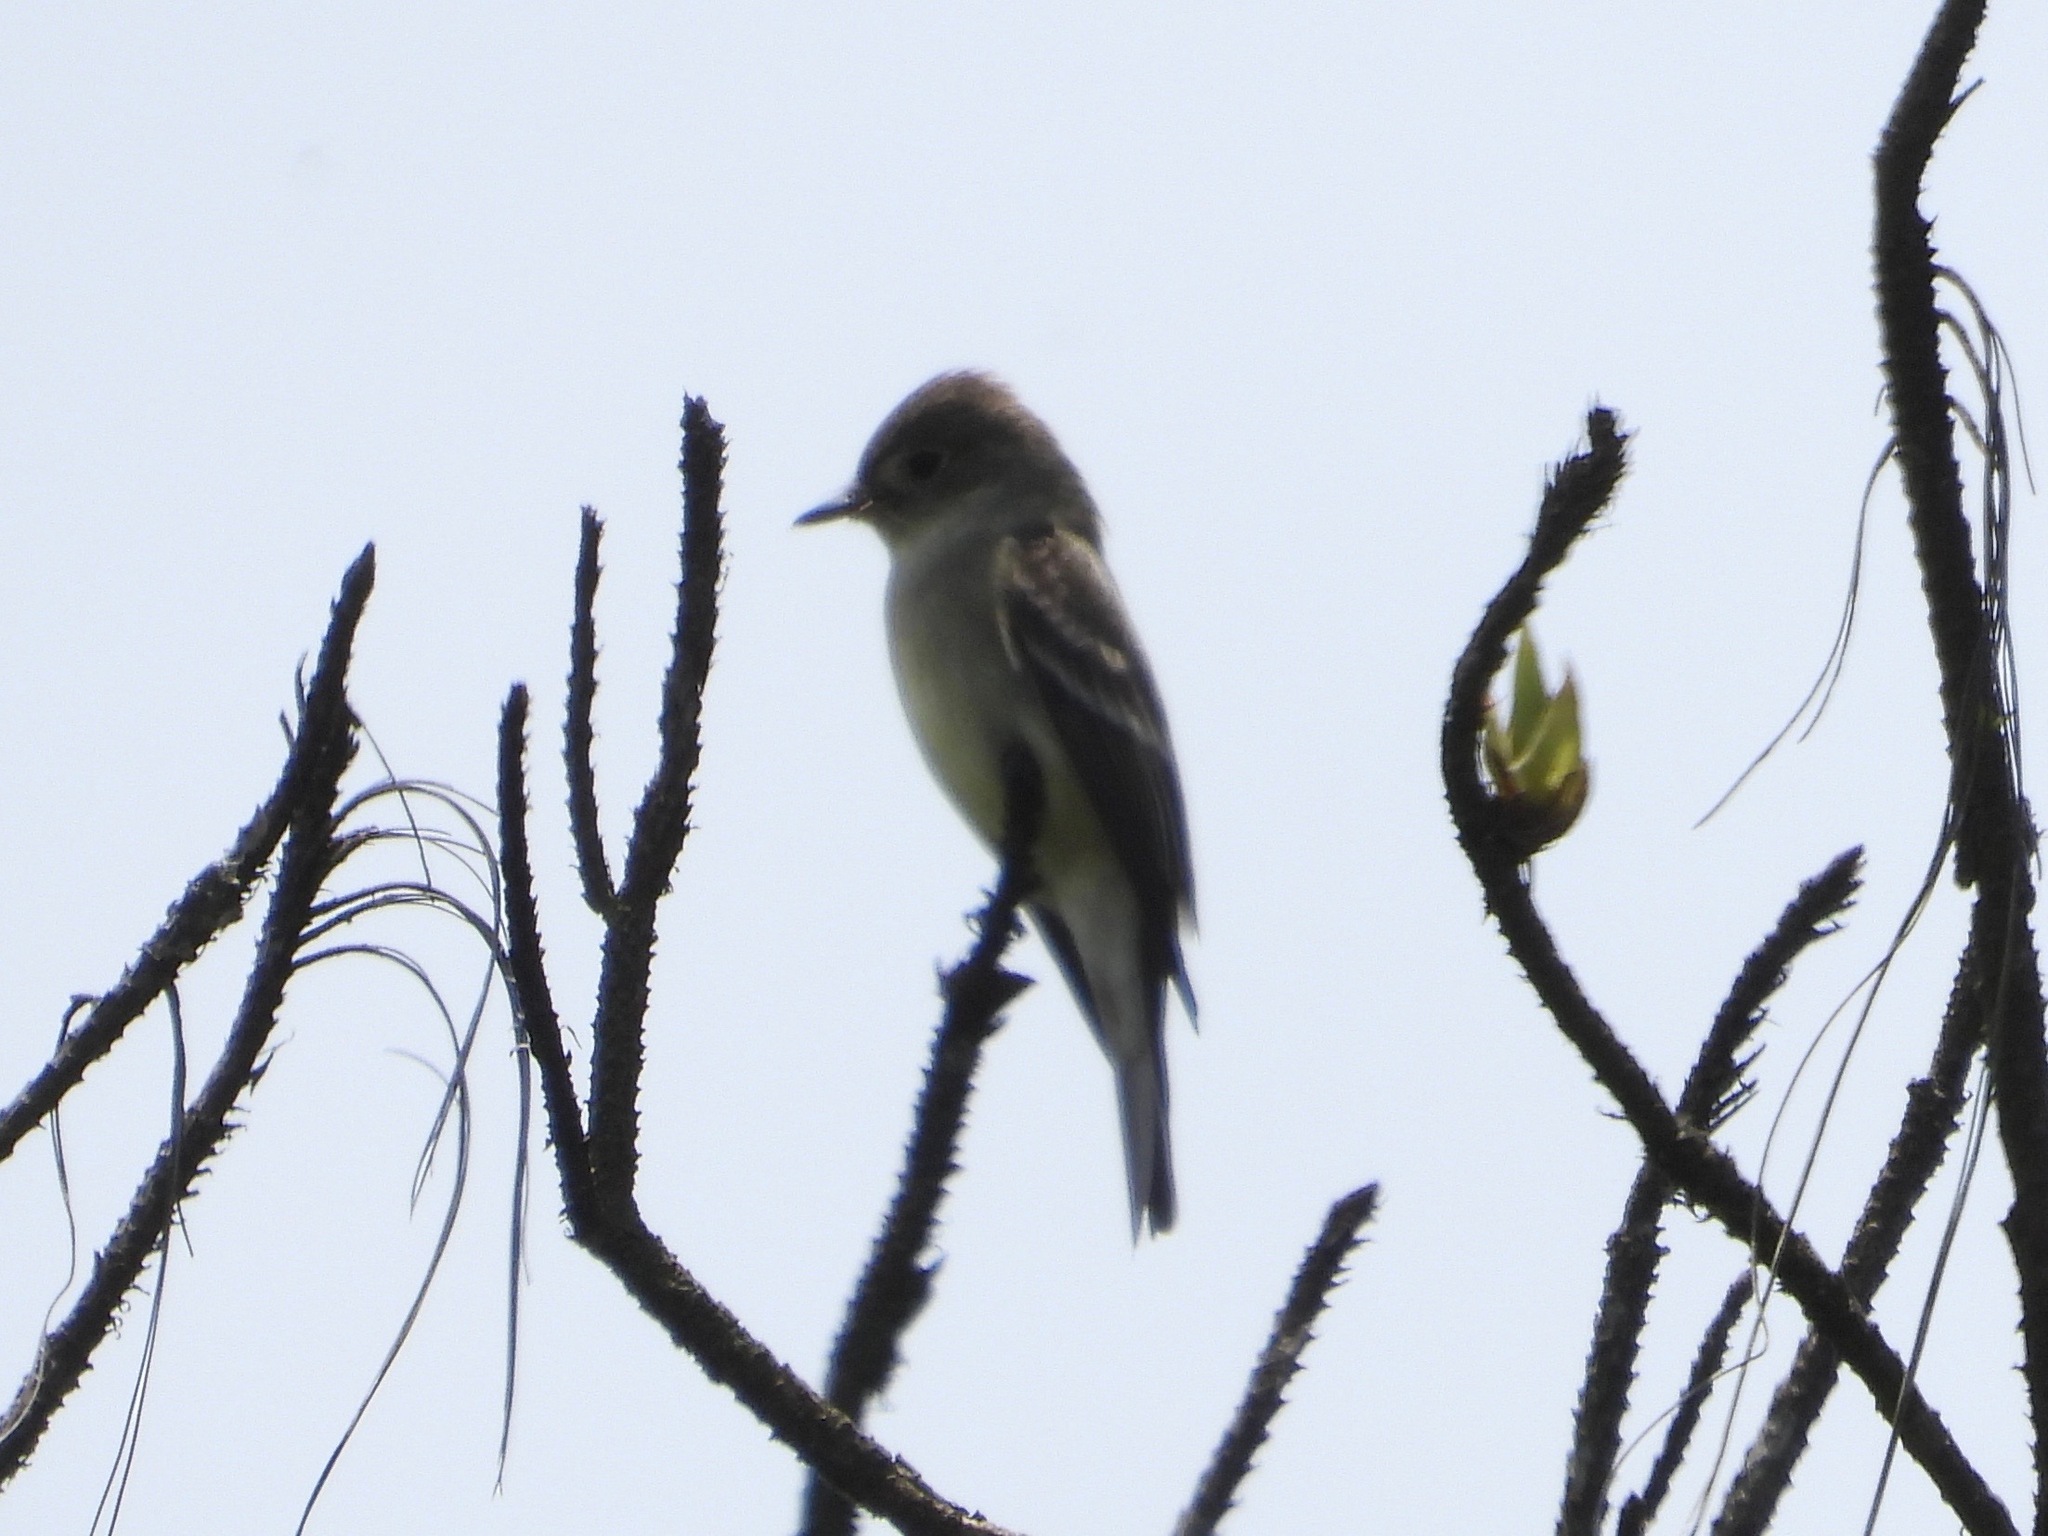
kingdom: Animalia
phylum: Chordata
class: Aves
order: Passeriformes
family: Tyrannidae
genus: Contopus
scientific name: Contopus sordidulus
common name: Western wood-pewee
